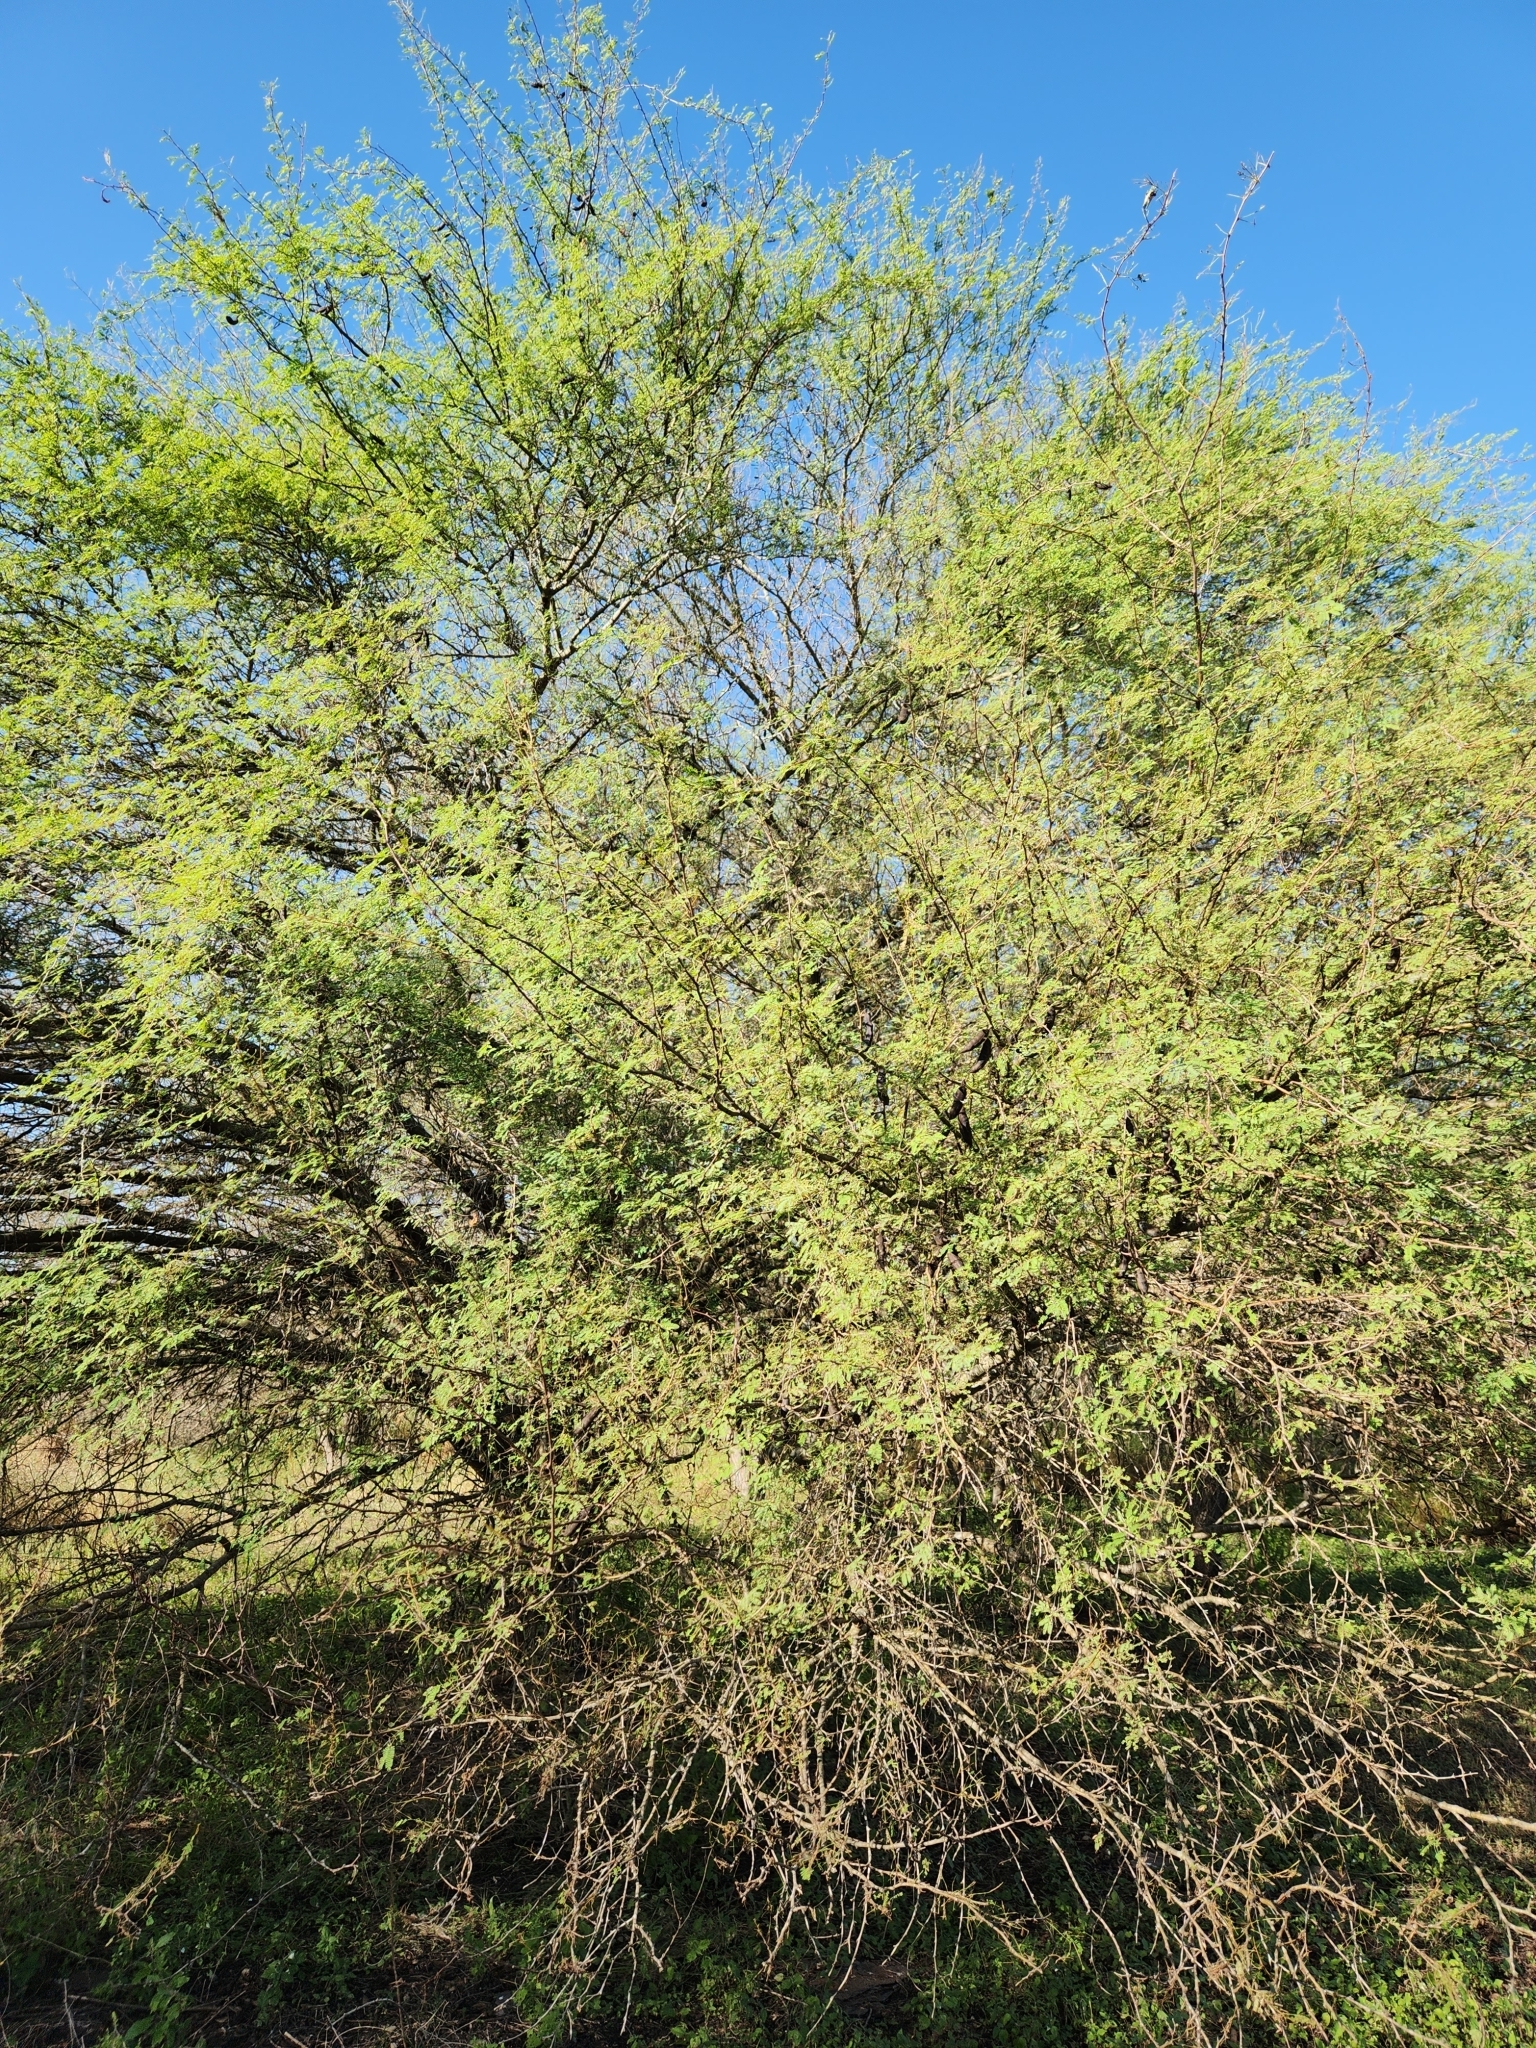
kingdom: Plantae
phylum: Tracheophyta
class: Magnoliopsida
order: Fabales
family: Fabaceae
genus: Vachellia
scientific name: Vachellia farnesiana
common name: Sweet acacia
